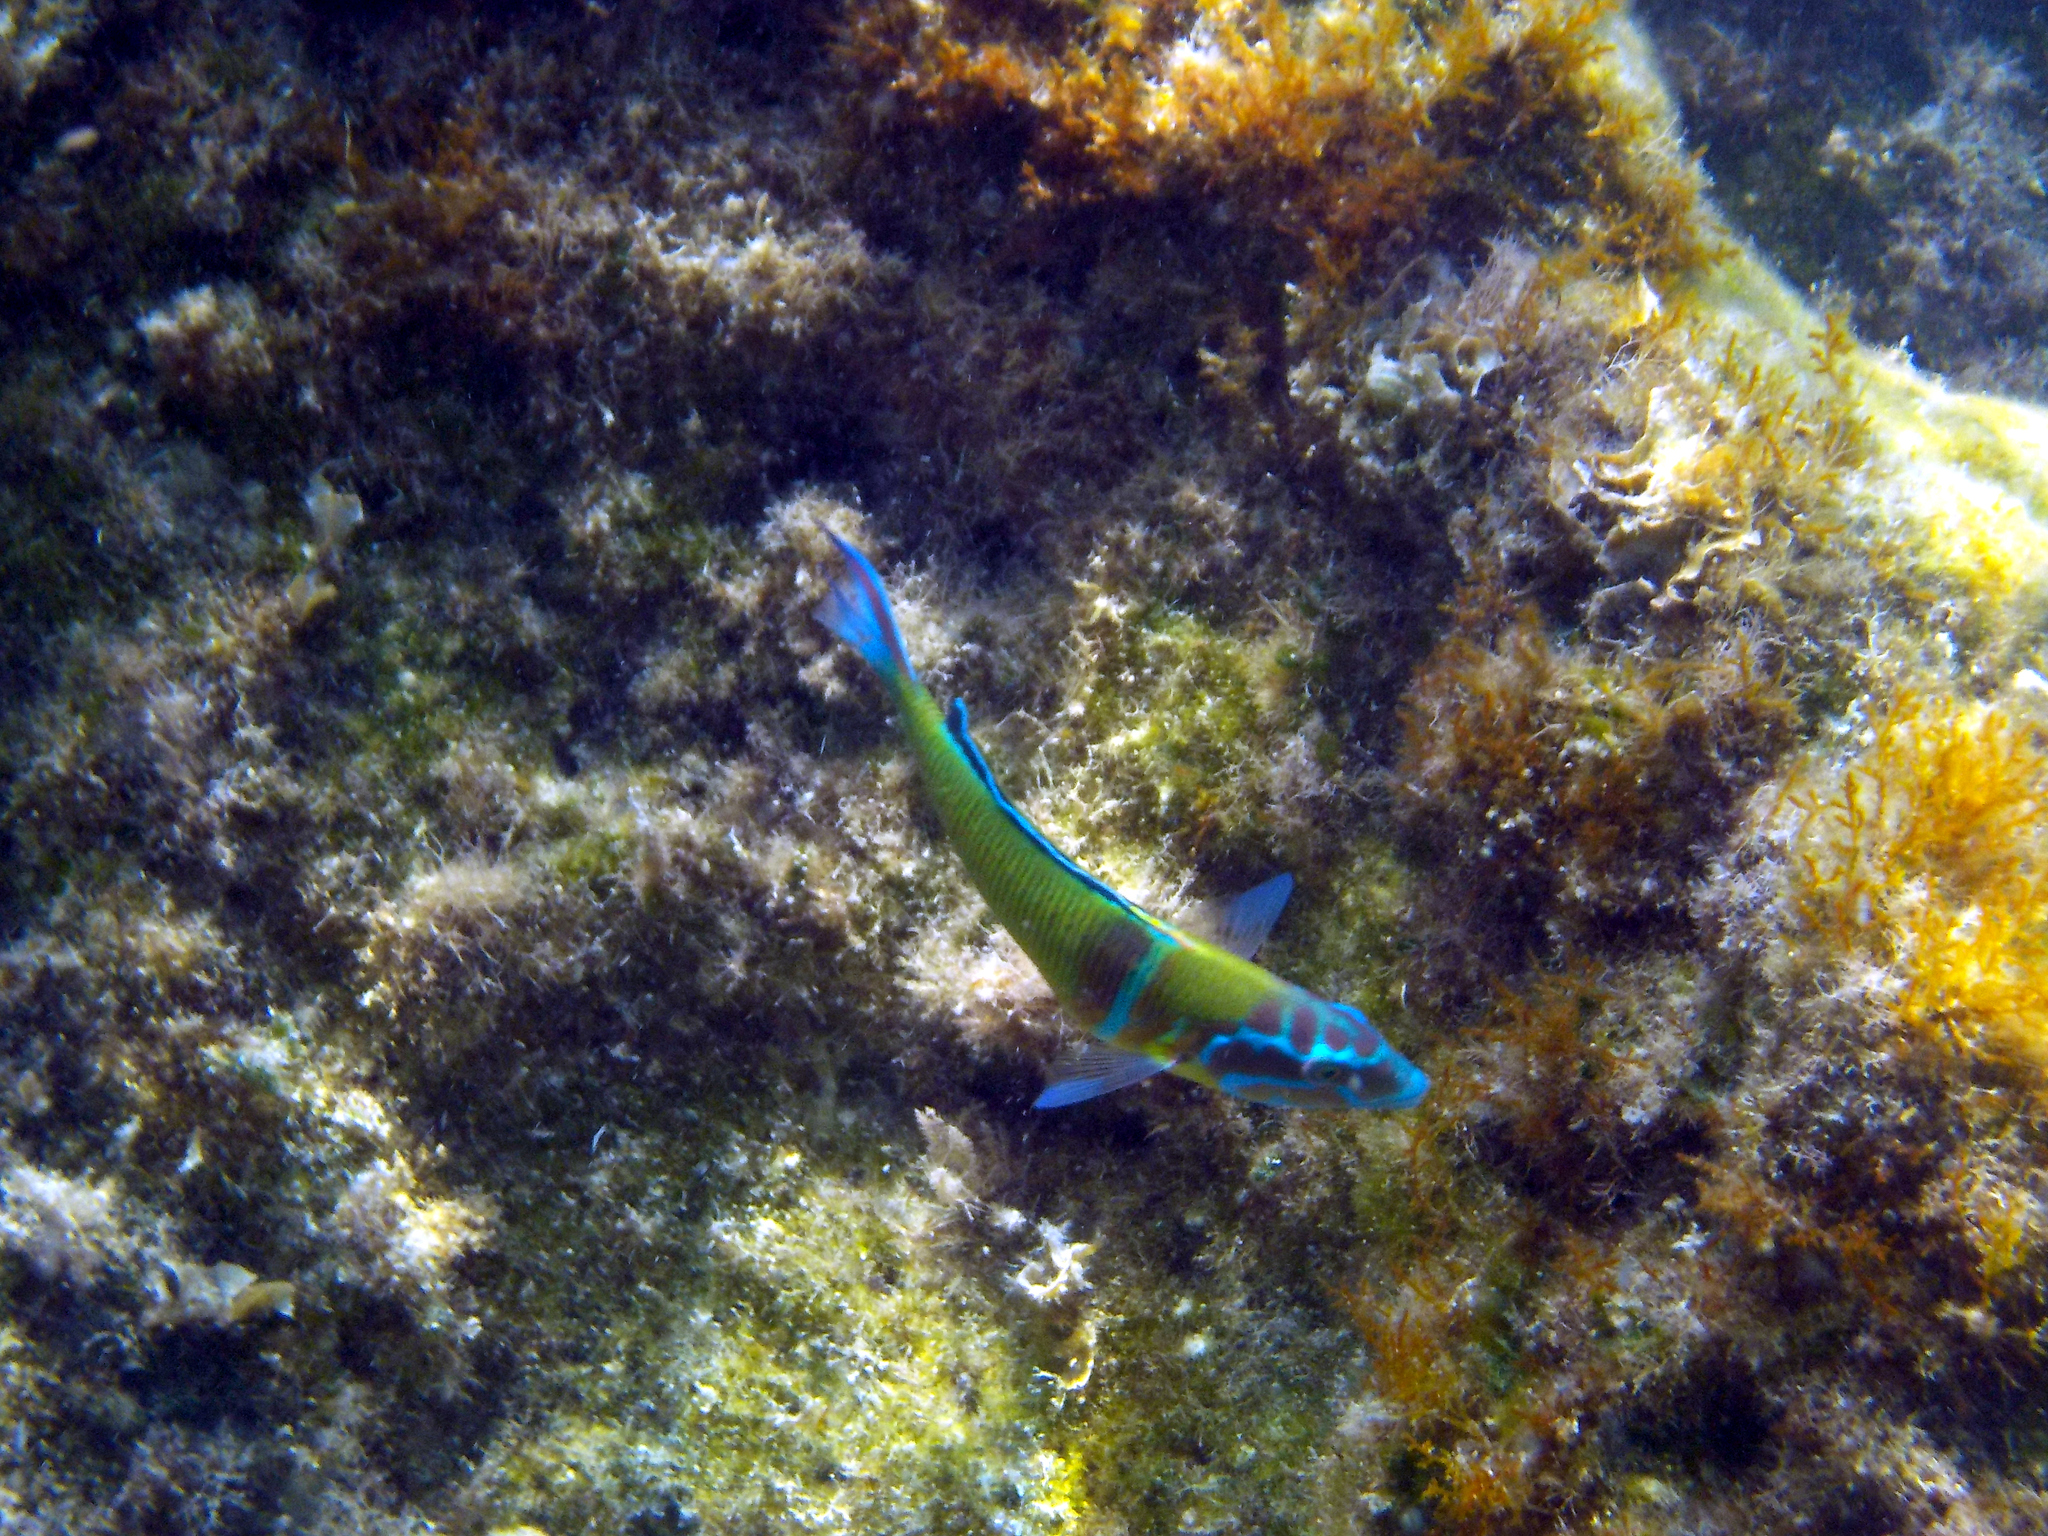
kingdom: Animalia
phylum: Chordata
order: Perciformes
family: Labridae
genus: Thalassoma
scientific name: Thalassoma pavo
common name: Ornate wrasse
